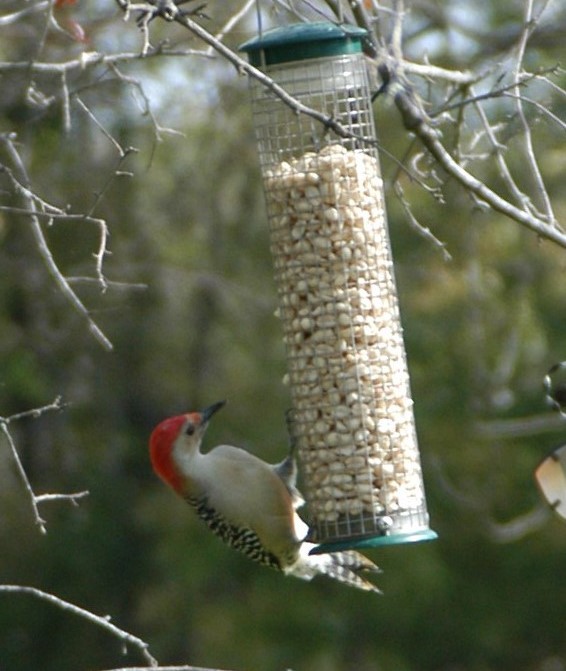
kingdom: Animalia
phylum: Chordata
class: Aves
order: Piciformes
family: Picidae
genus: Melanerpes
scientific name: Melanerpes carolinus
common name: Red-bellied woodpecker
